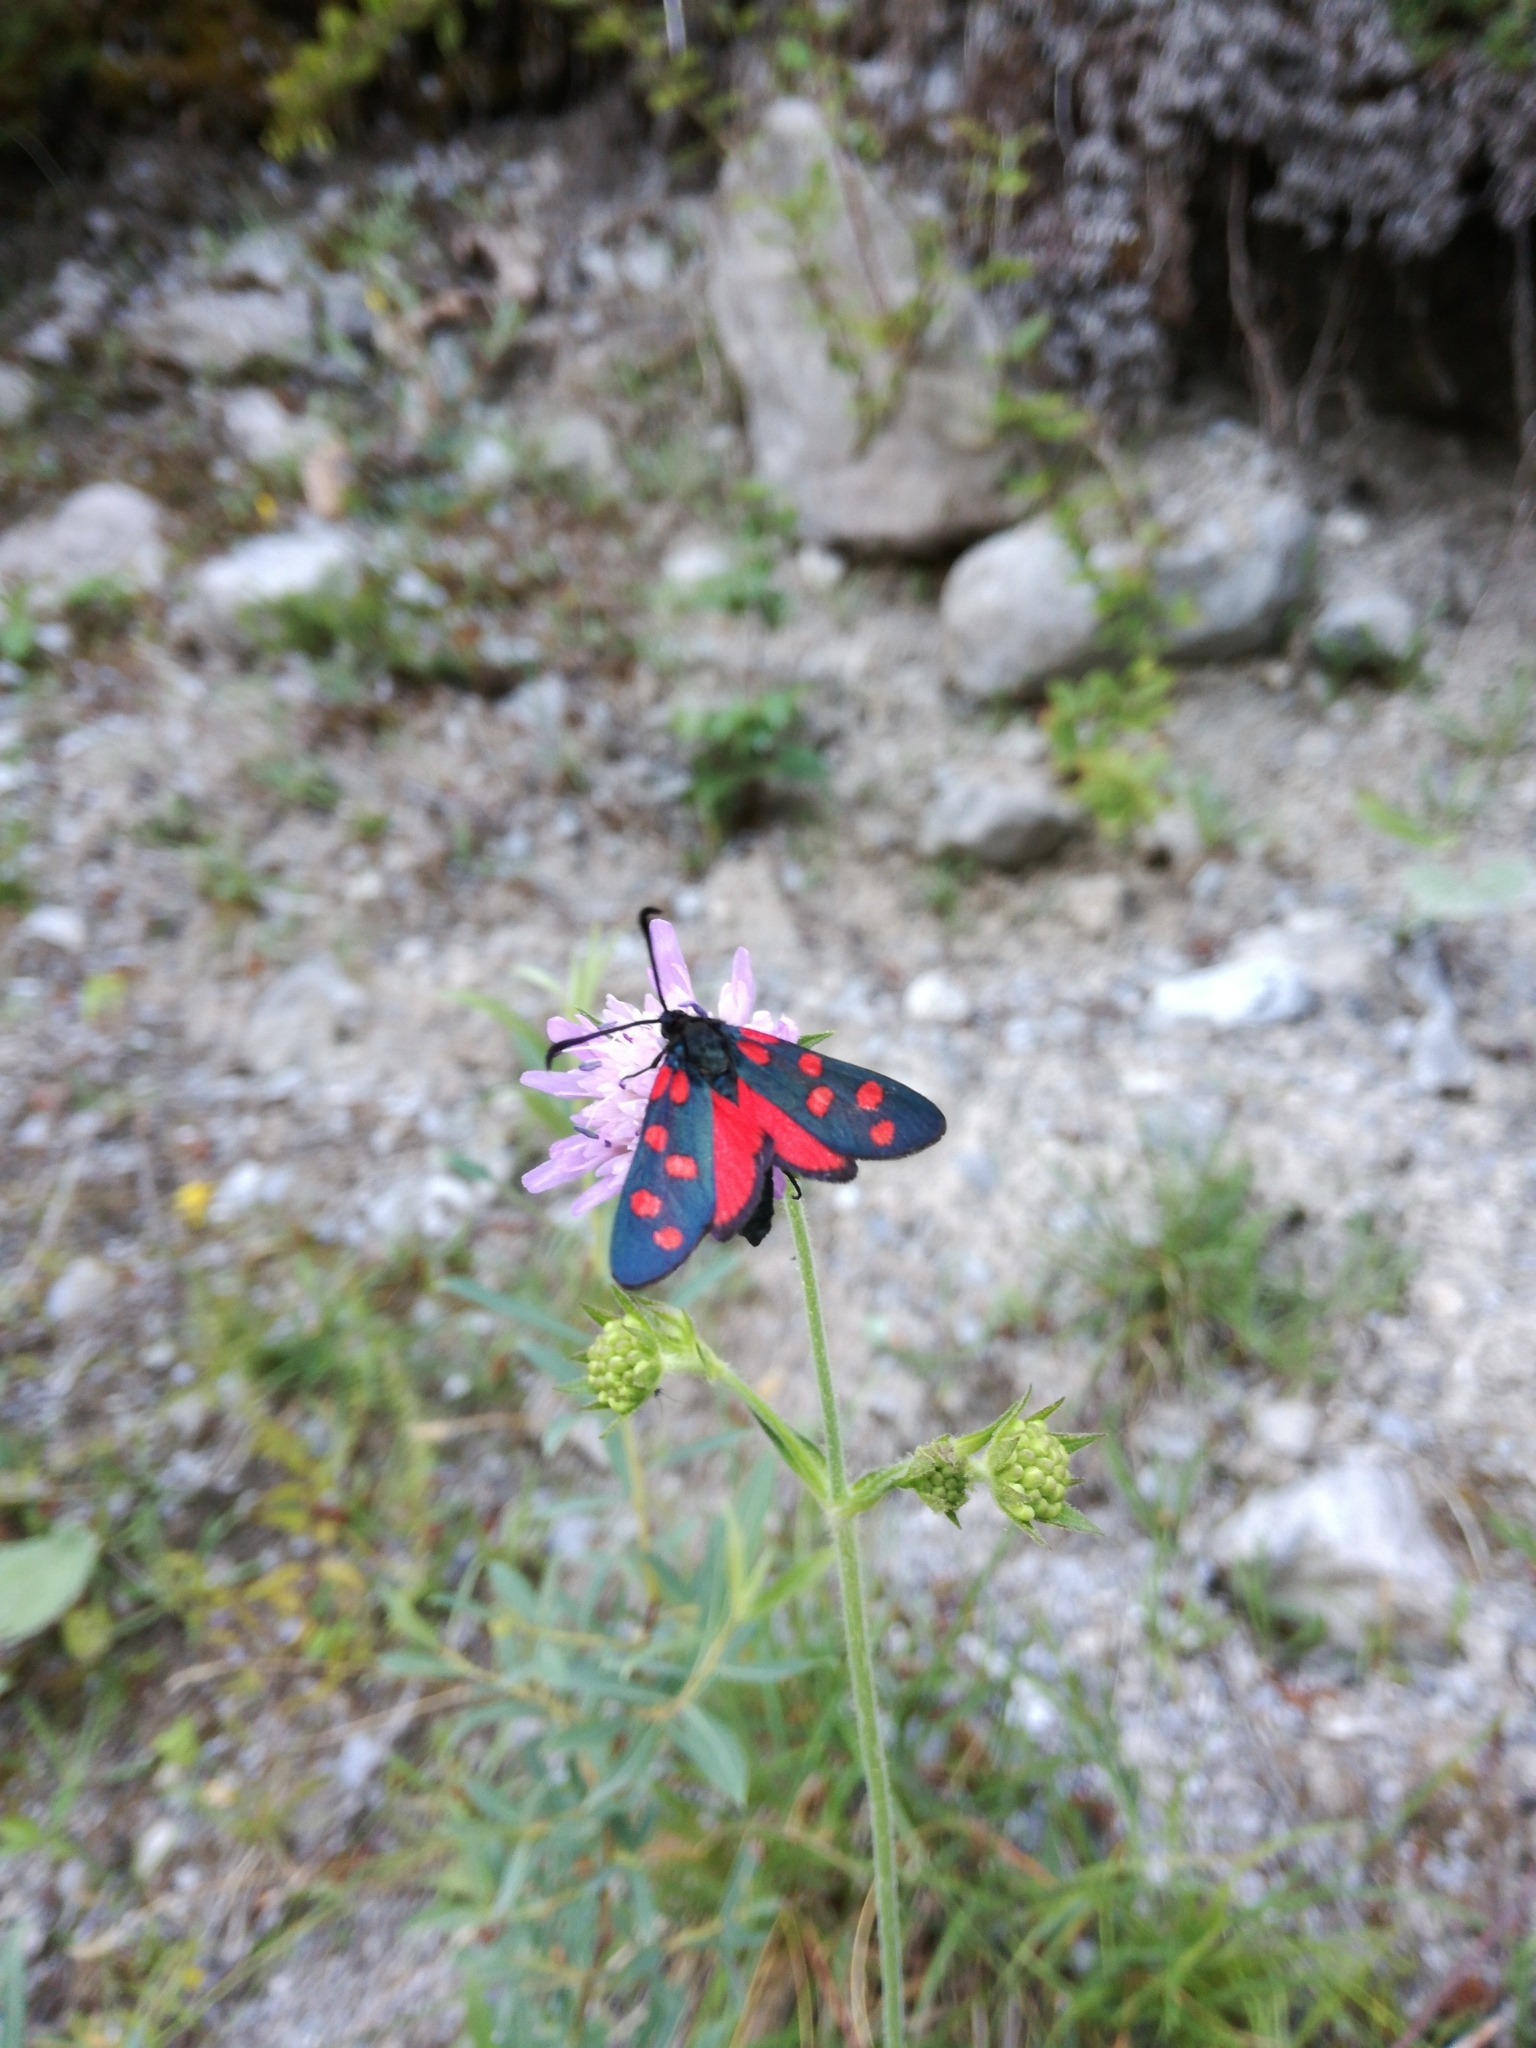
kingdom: Animalia
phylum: Arthropoda
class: Insecta
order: Lepidoptera
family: Zygaenidae
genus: Zygaena
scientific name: Zygaena transalpina
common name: Southern six spot burnet
